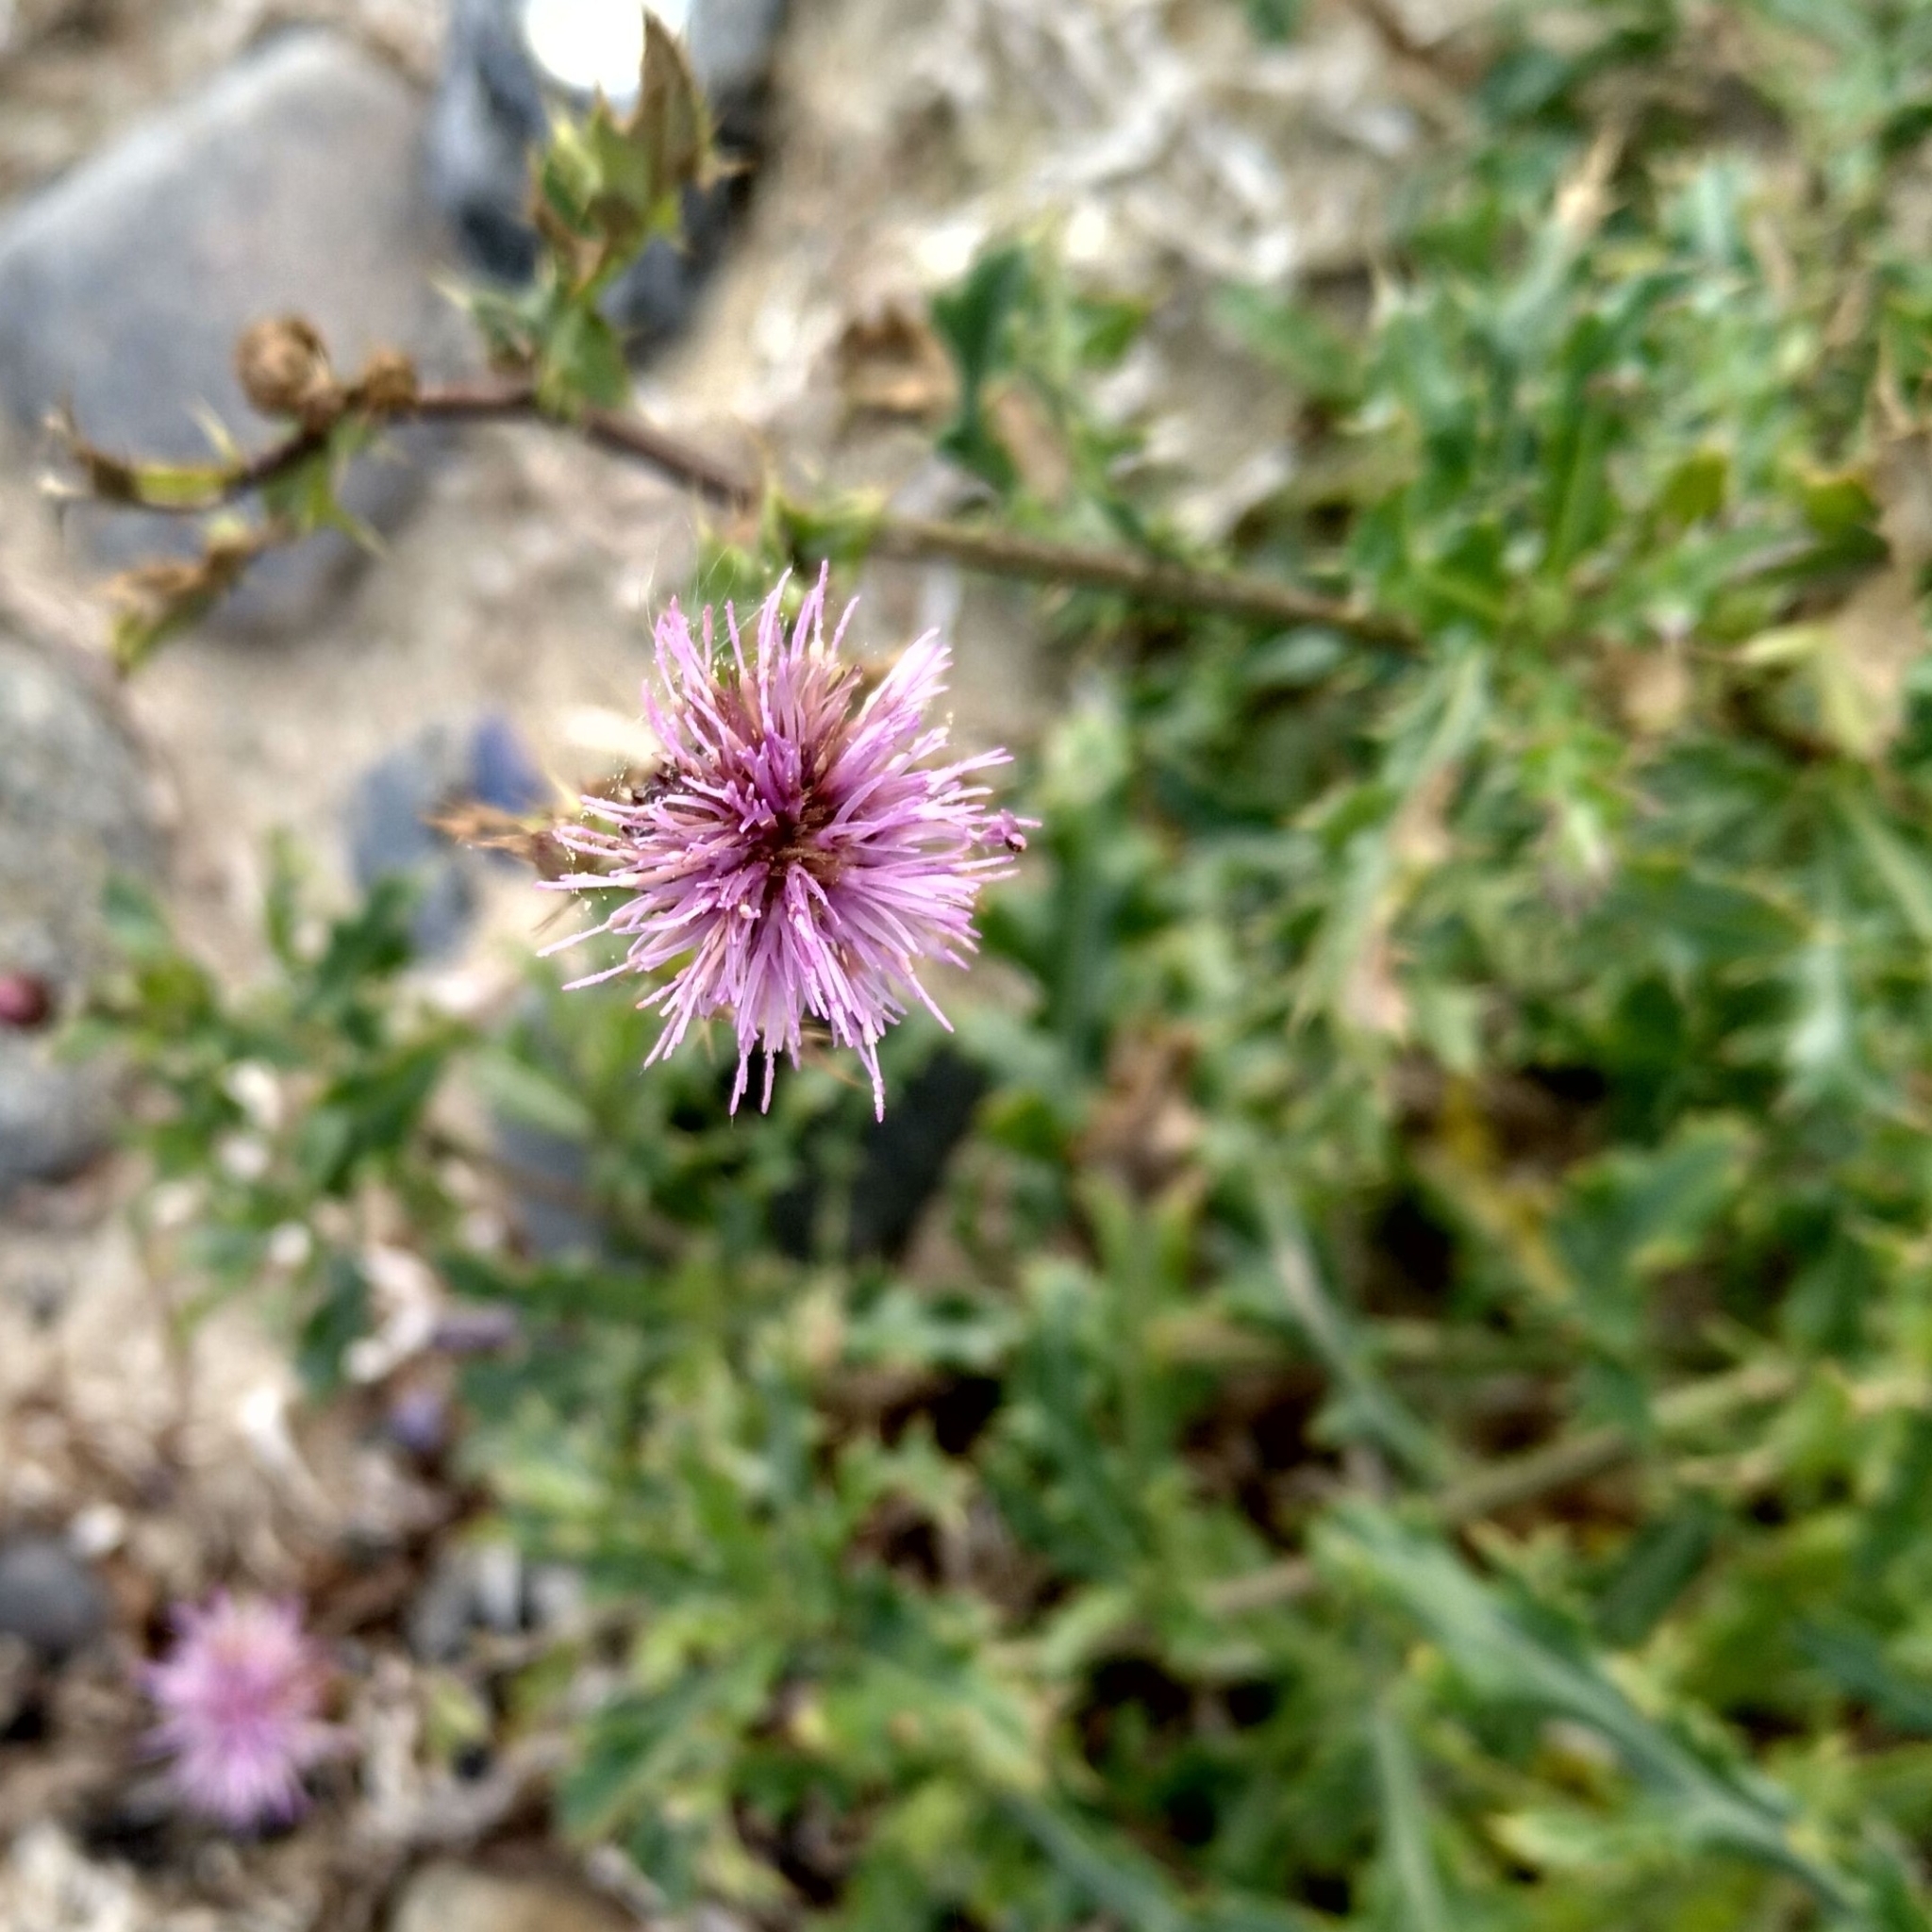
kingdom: Plantae
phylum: Tracheophyta
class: Magnoliopsida
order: Asterales
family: Asteraceae
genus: Cirsium
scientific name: Cirsium arvense
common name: Creeping thistle
